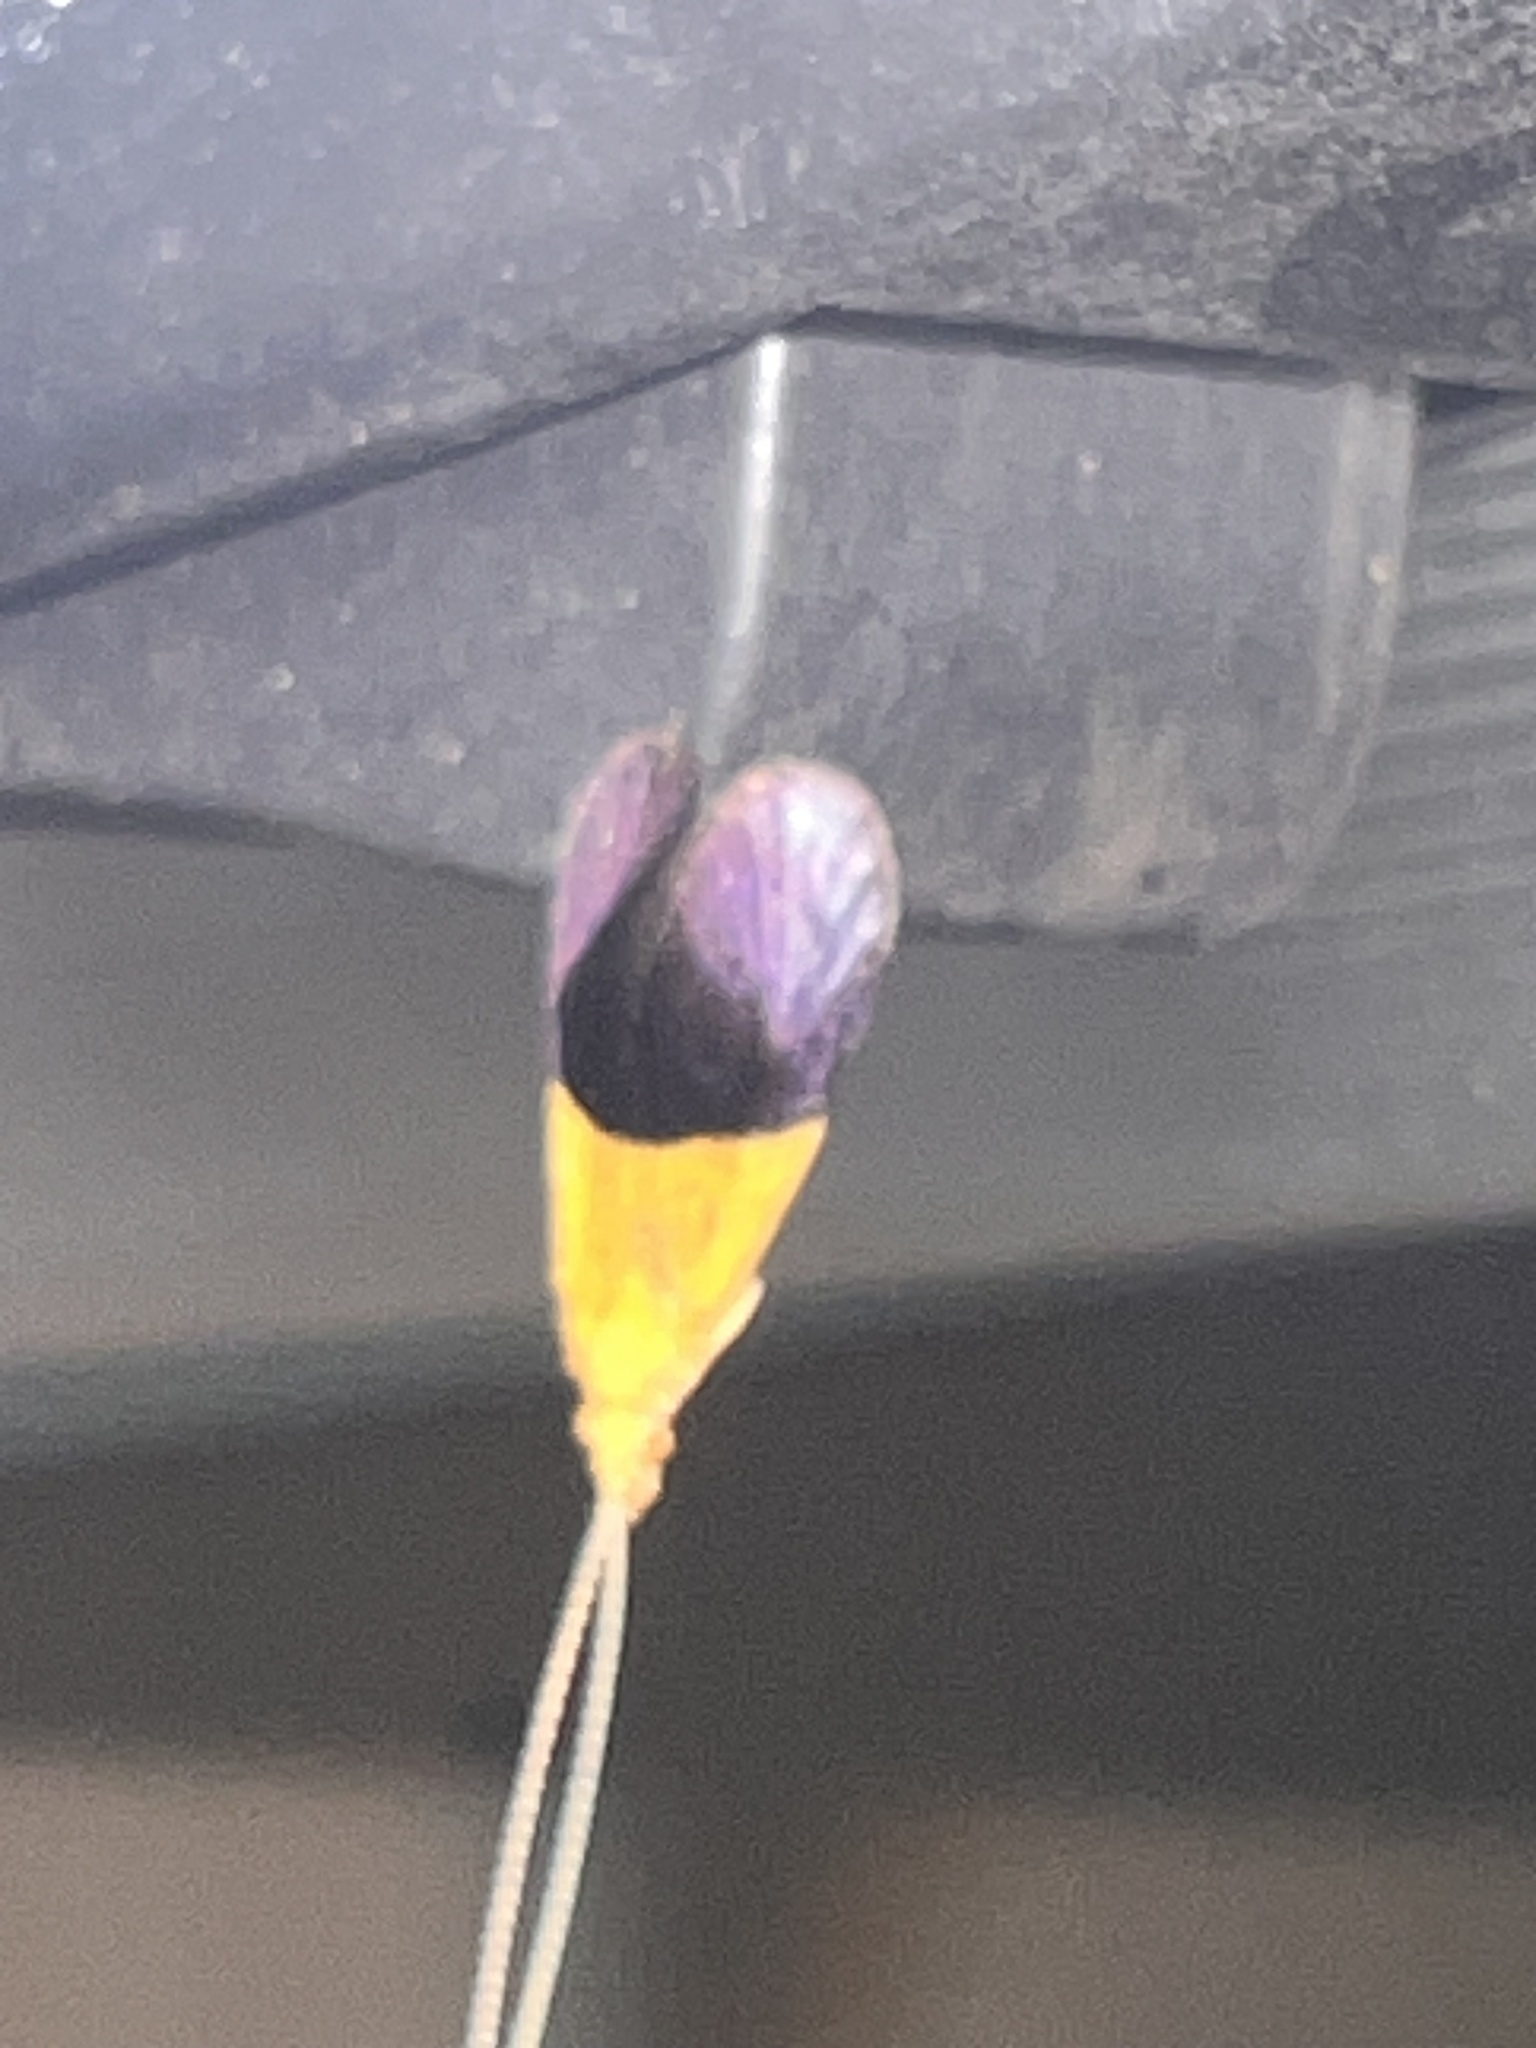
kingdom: Animalia
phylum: Arthropoda
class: Insecta
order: Trichoptera
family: Calamoceratidae
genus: Anisocentropus
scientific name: Anisocentropus torulus
